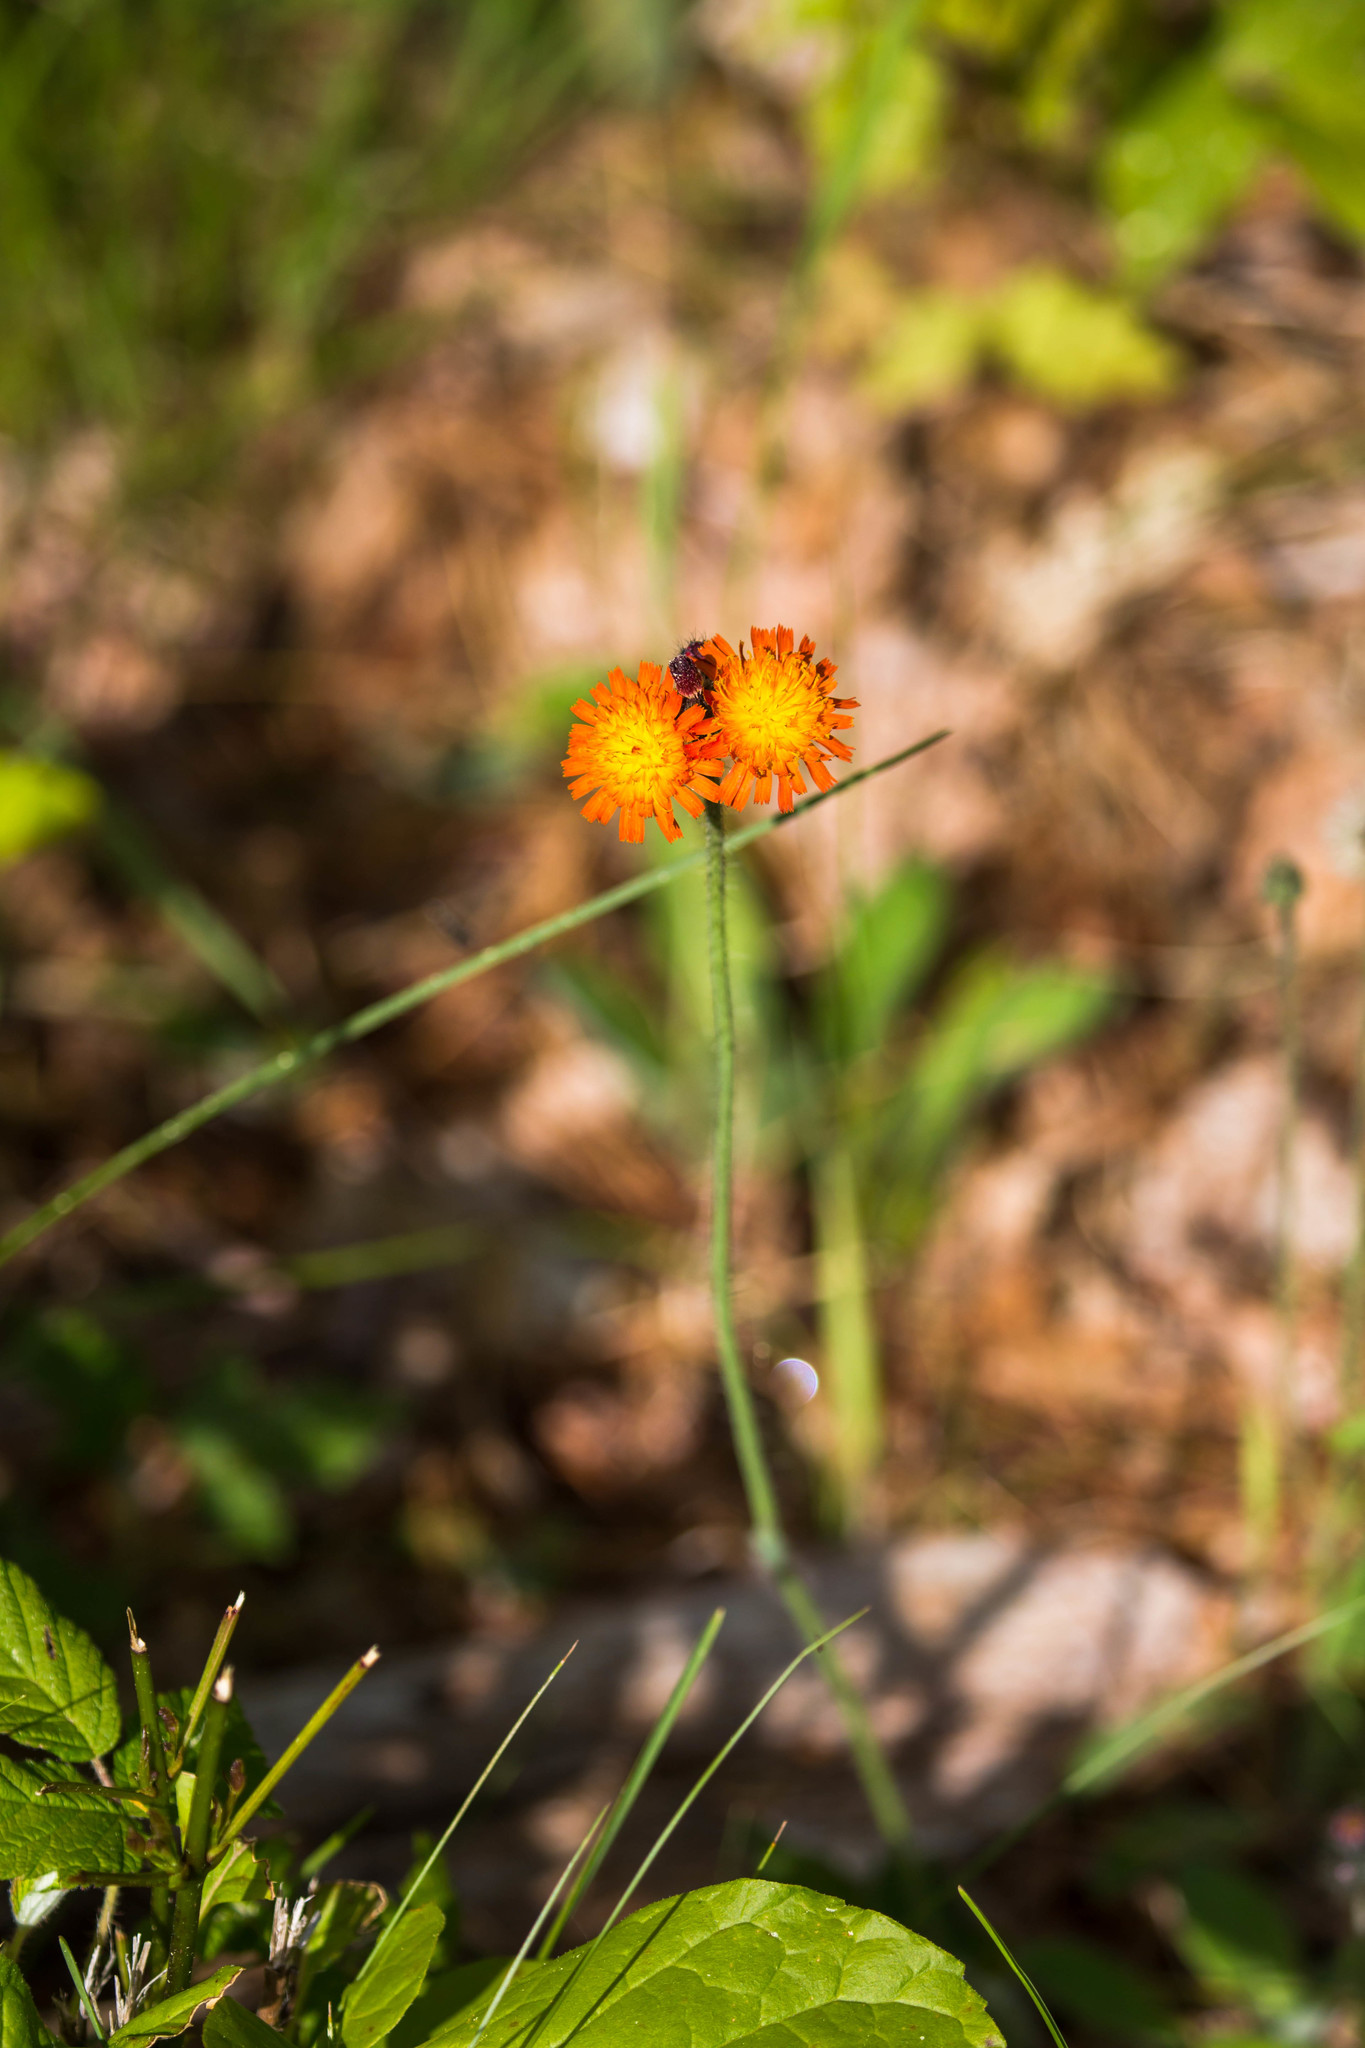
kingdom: Plantae
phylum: Tracheophyta
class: Magnoliopsida
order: Asterales
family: Asteraceae
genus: Pilosella
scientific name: Pilosella aurantiaca
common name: Fox-and-cubs
